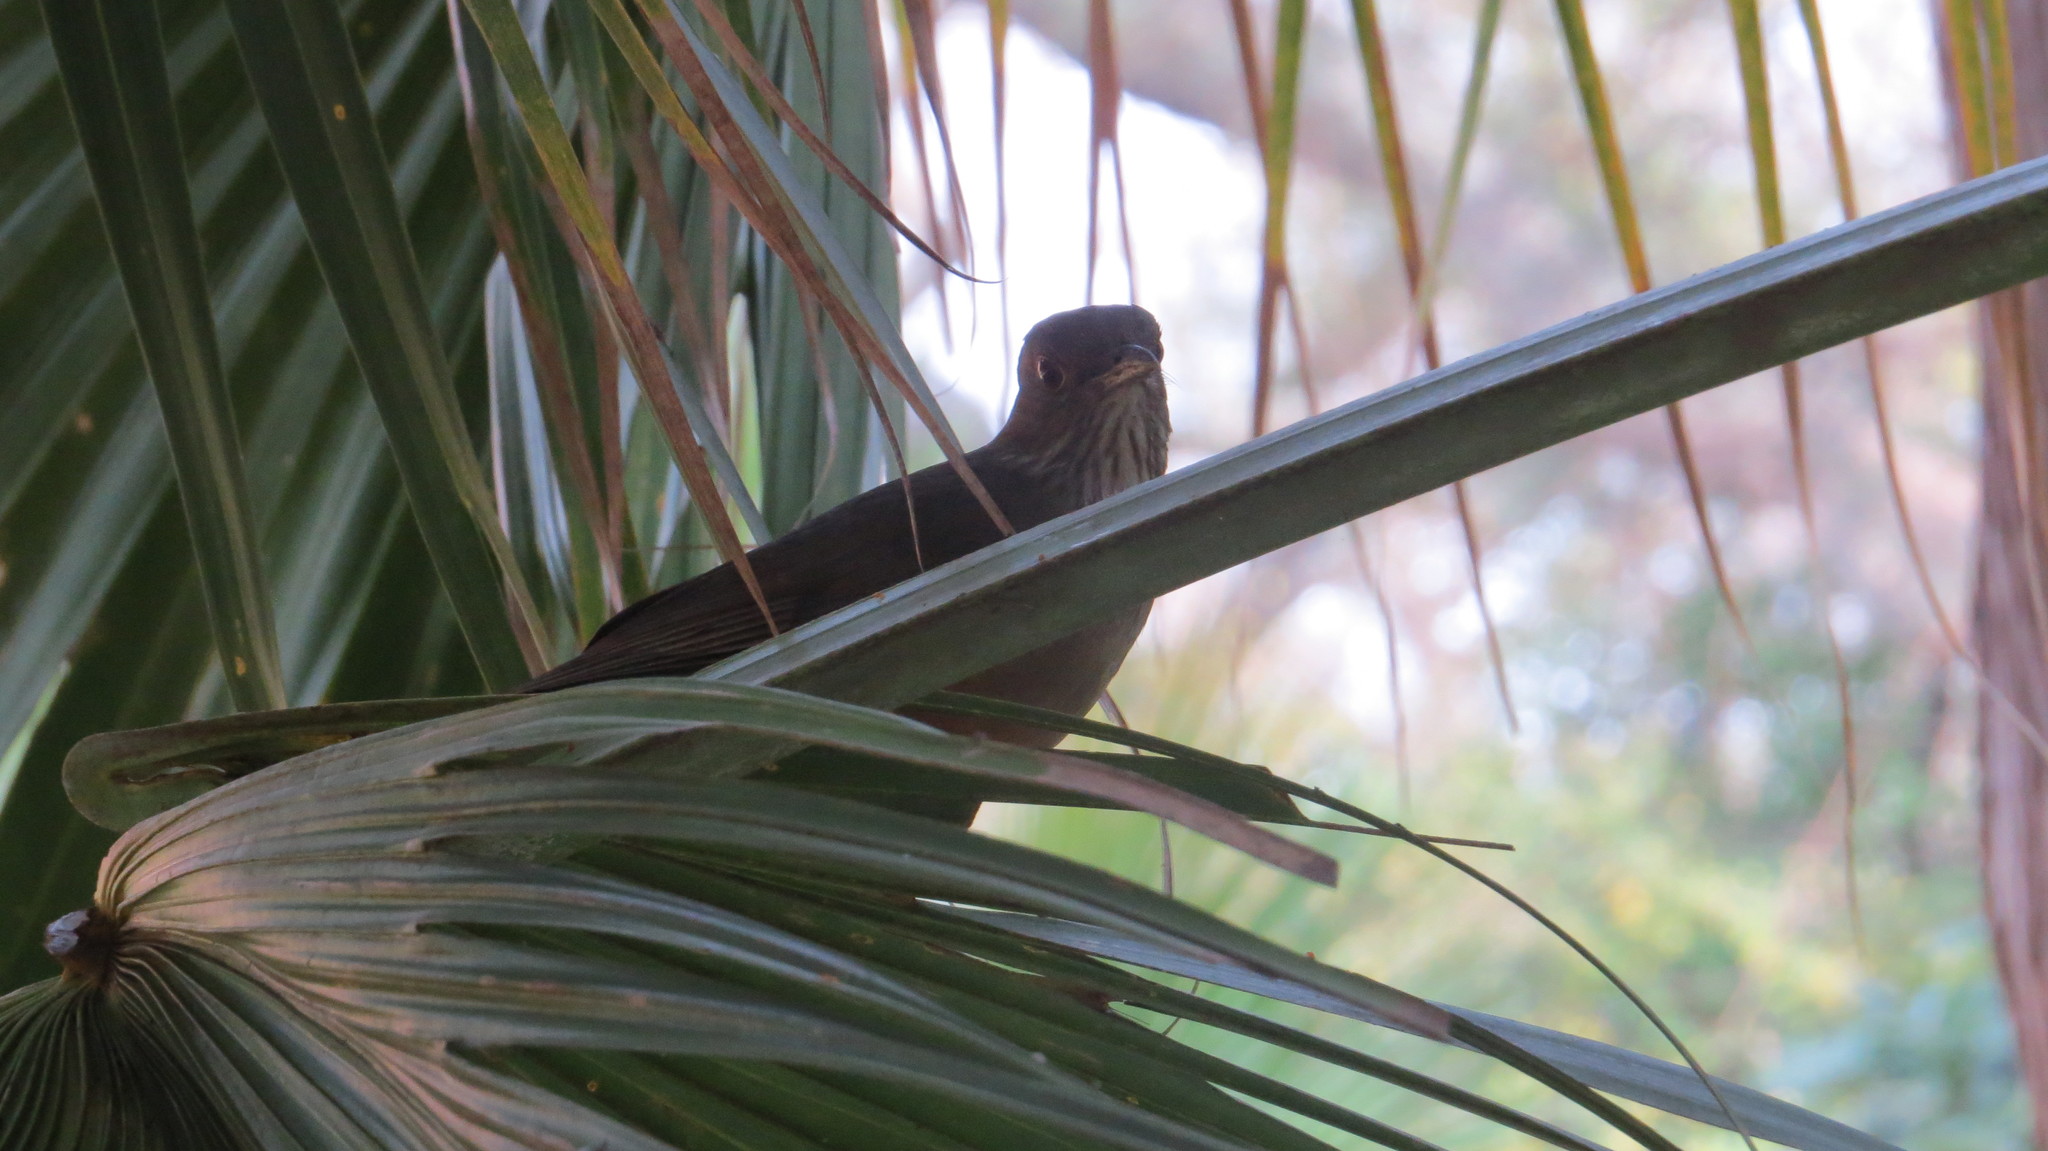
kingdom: Animalia
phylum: Chordata
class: Aves
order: Passeriformes
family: Turdidae
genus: Turdus
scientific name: Turdus rufiventris
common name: Rufous-bellied thrush
